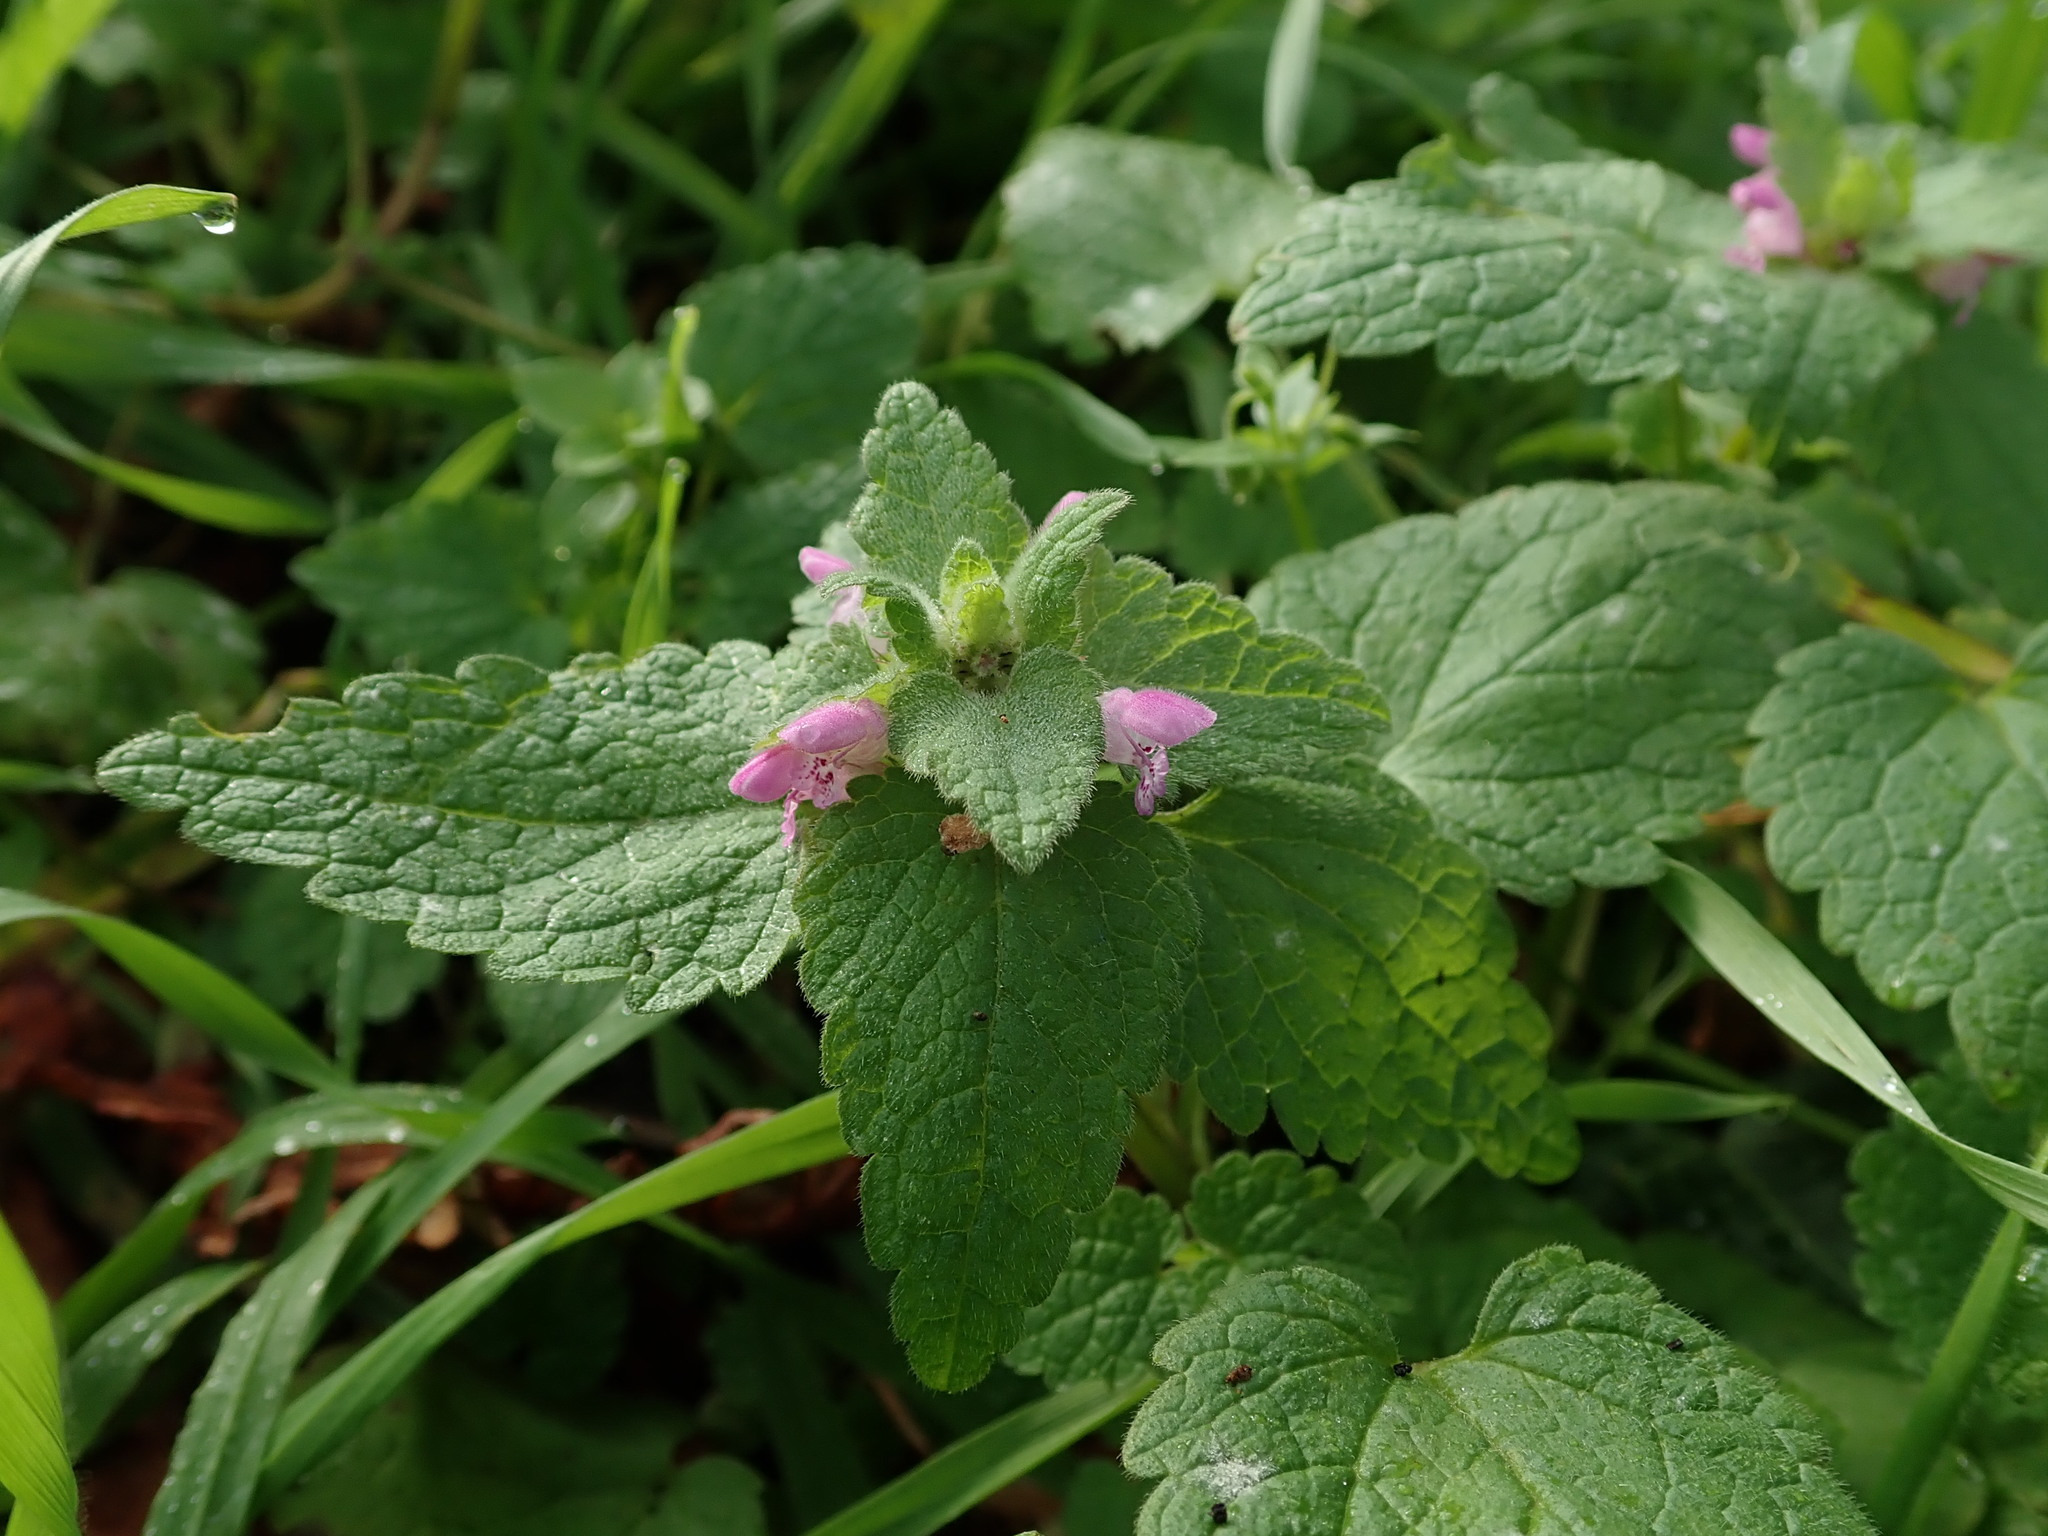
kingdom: Plantae
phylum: Tracheophyta
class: Magnoliopsida
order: Lamiales
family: Lamiaceae
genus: Lamium
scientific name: Lamium purpureum
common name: Red dead-nettle
